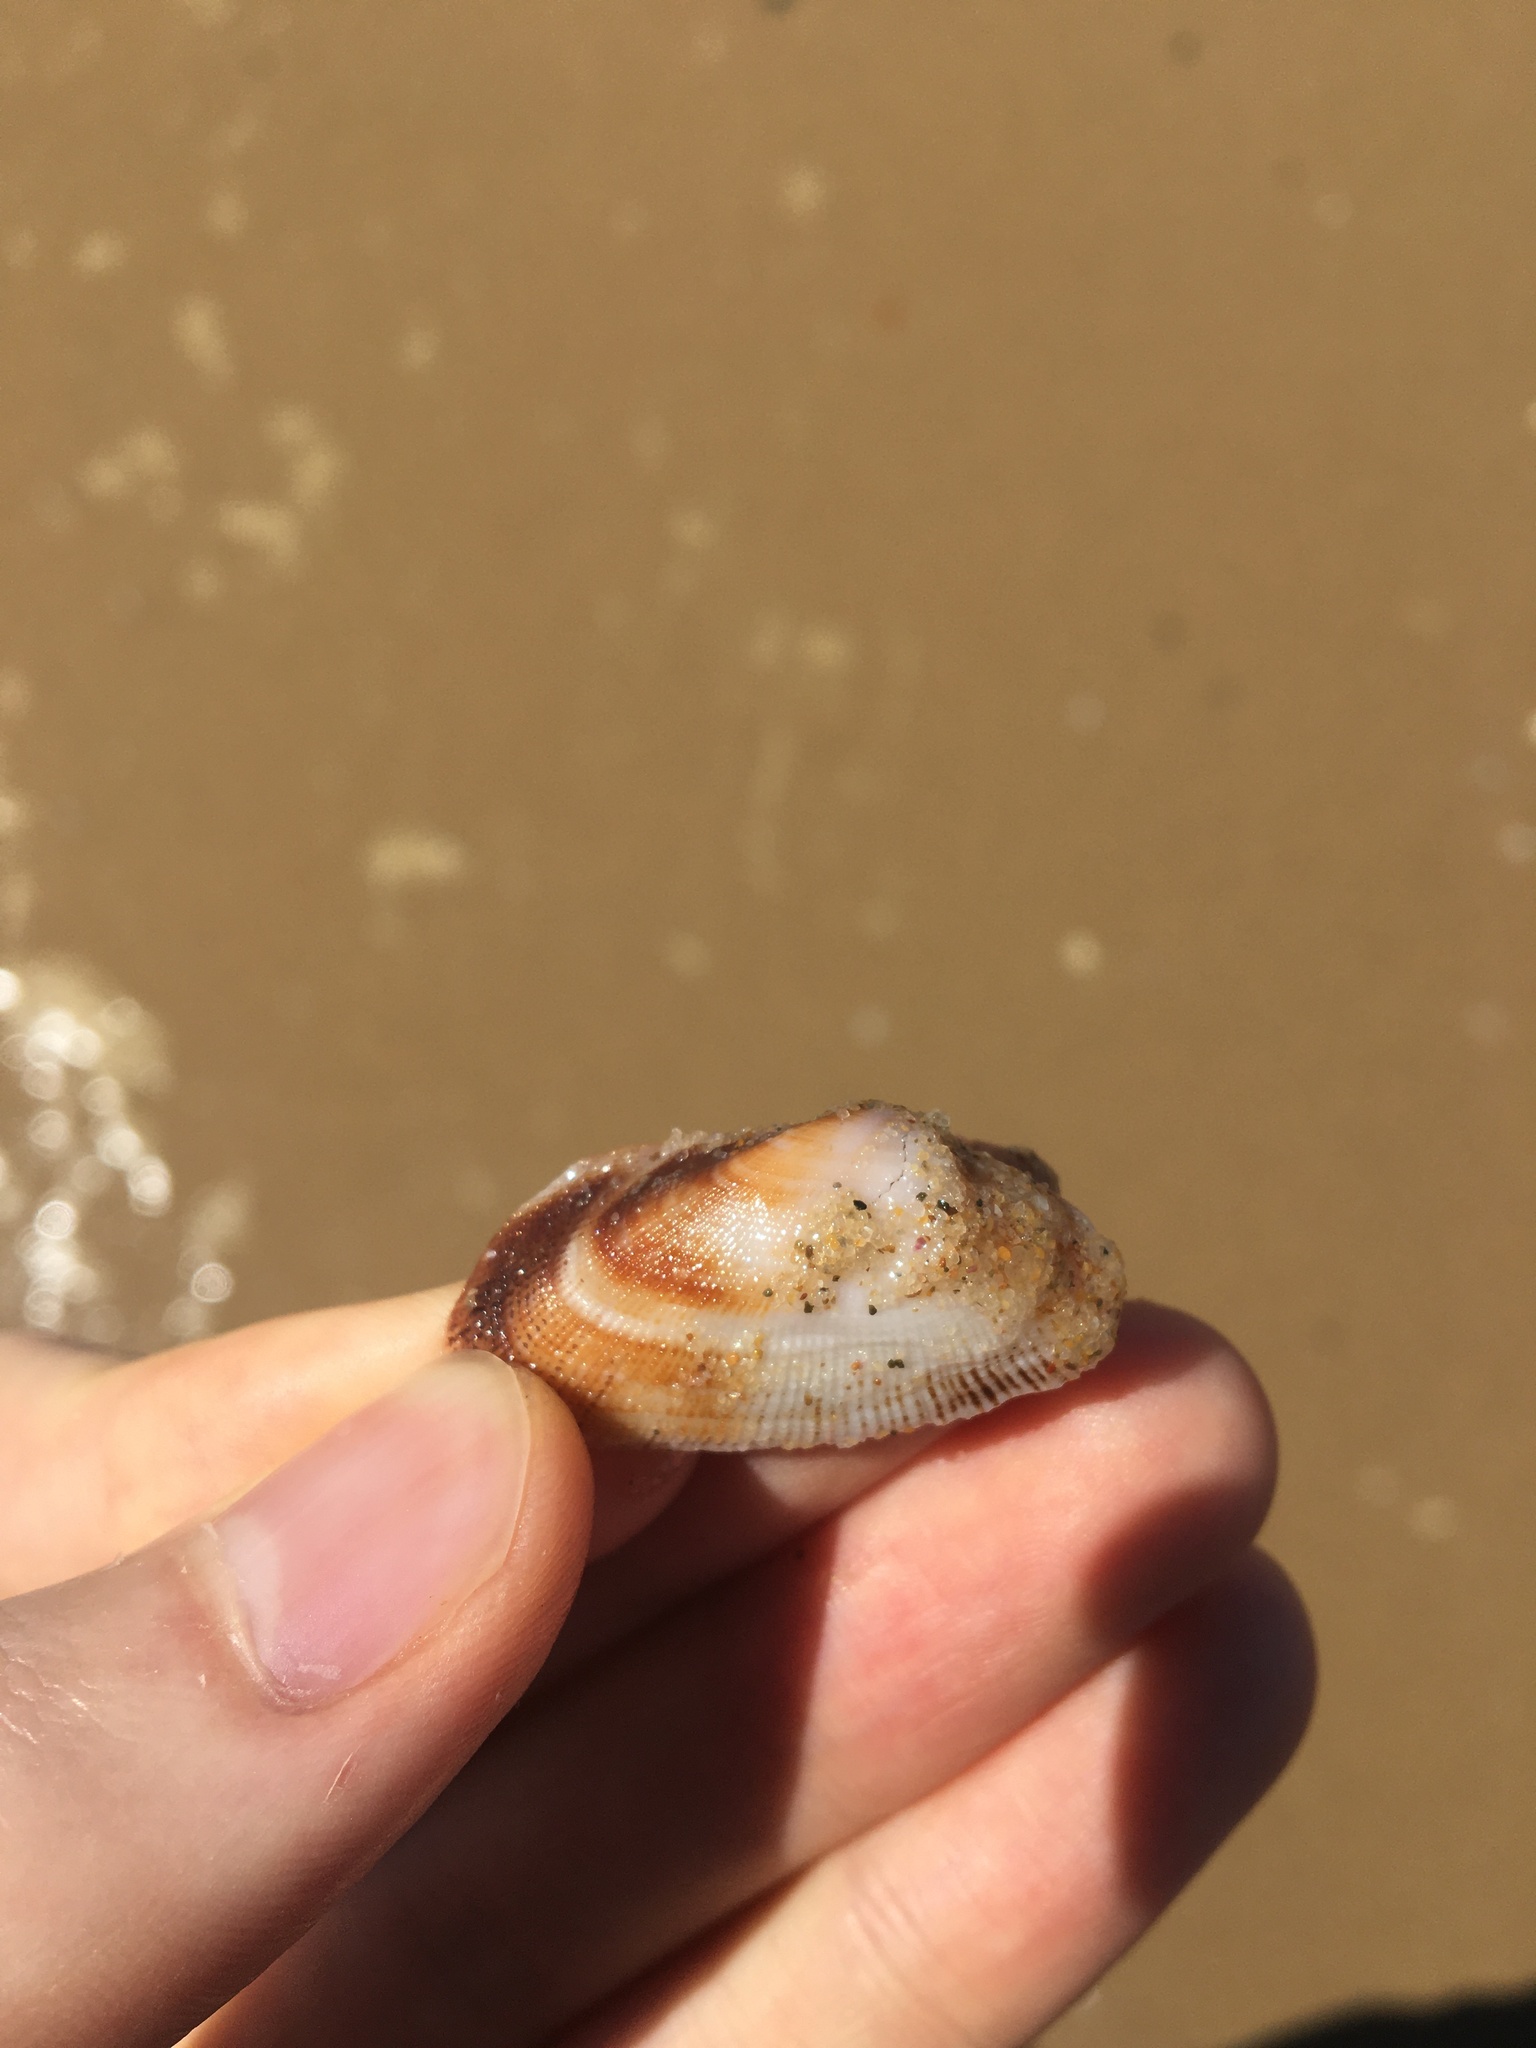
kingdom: Animalia
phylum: Mollusca
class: Bivalvia
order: Arcida
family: Arcidae
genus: Barbatia
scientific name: Barbatia pistachia
